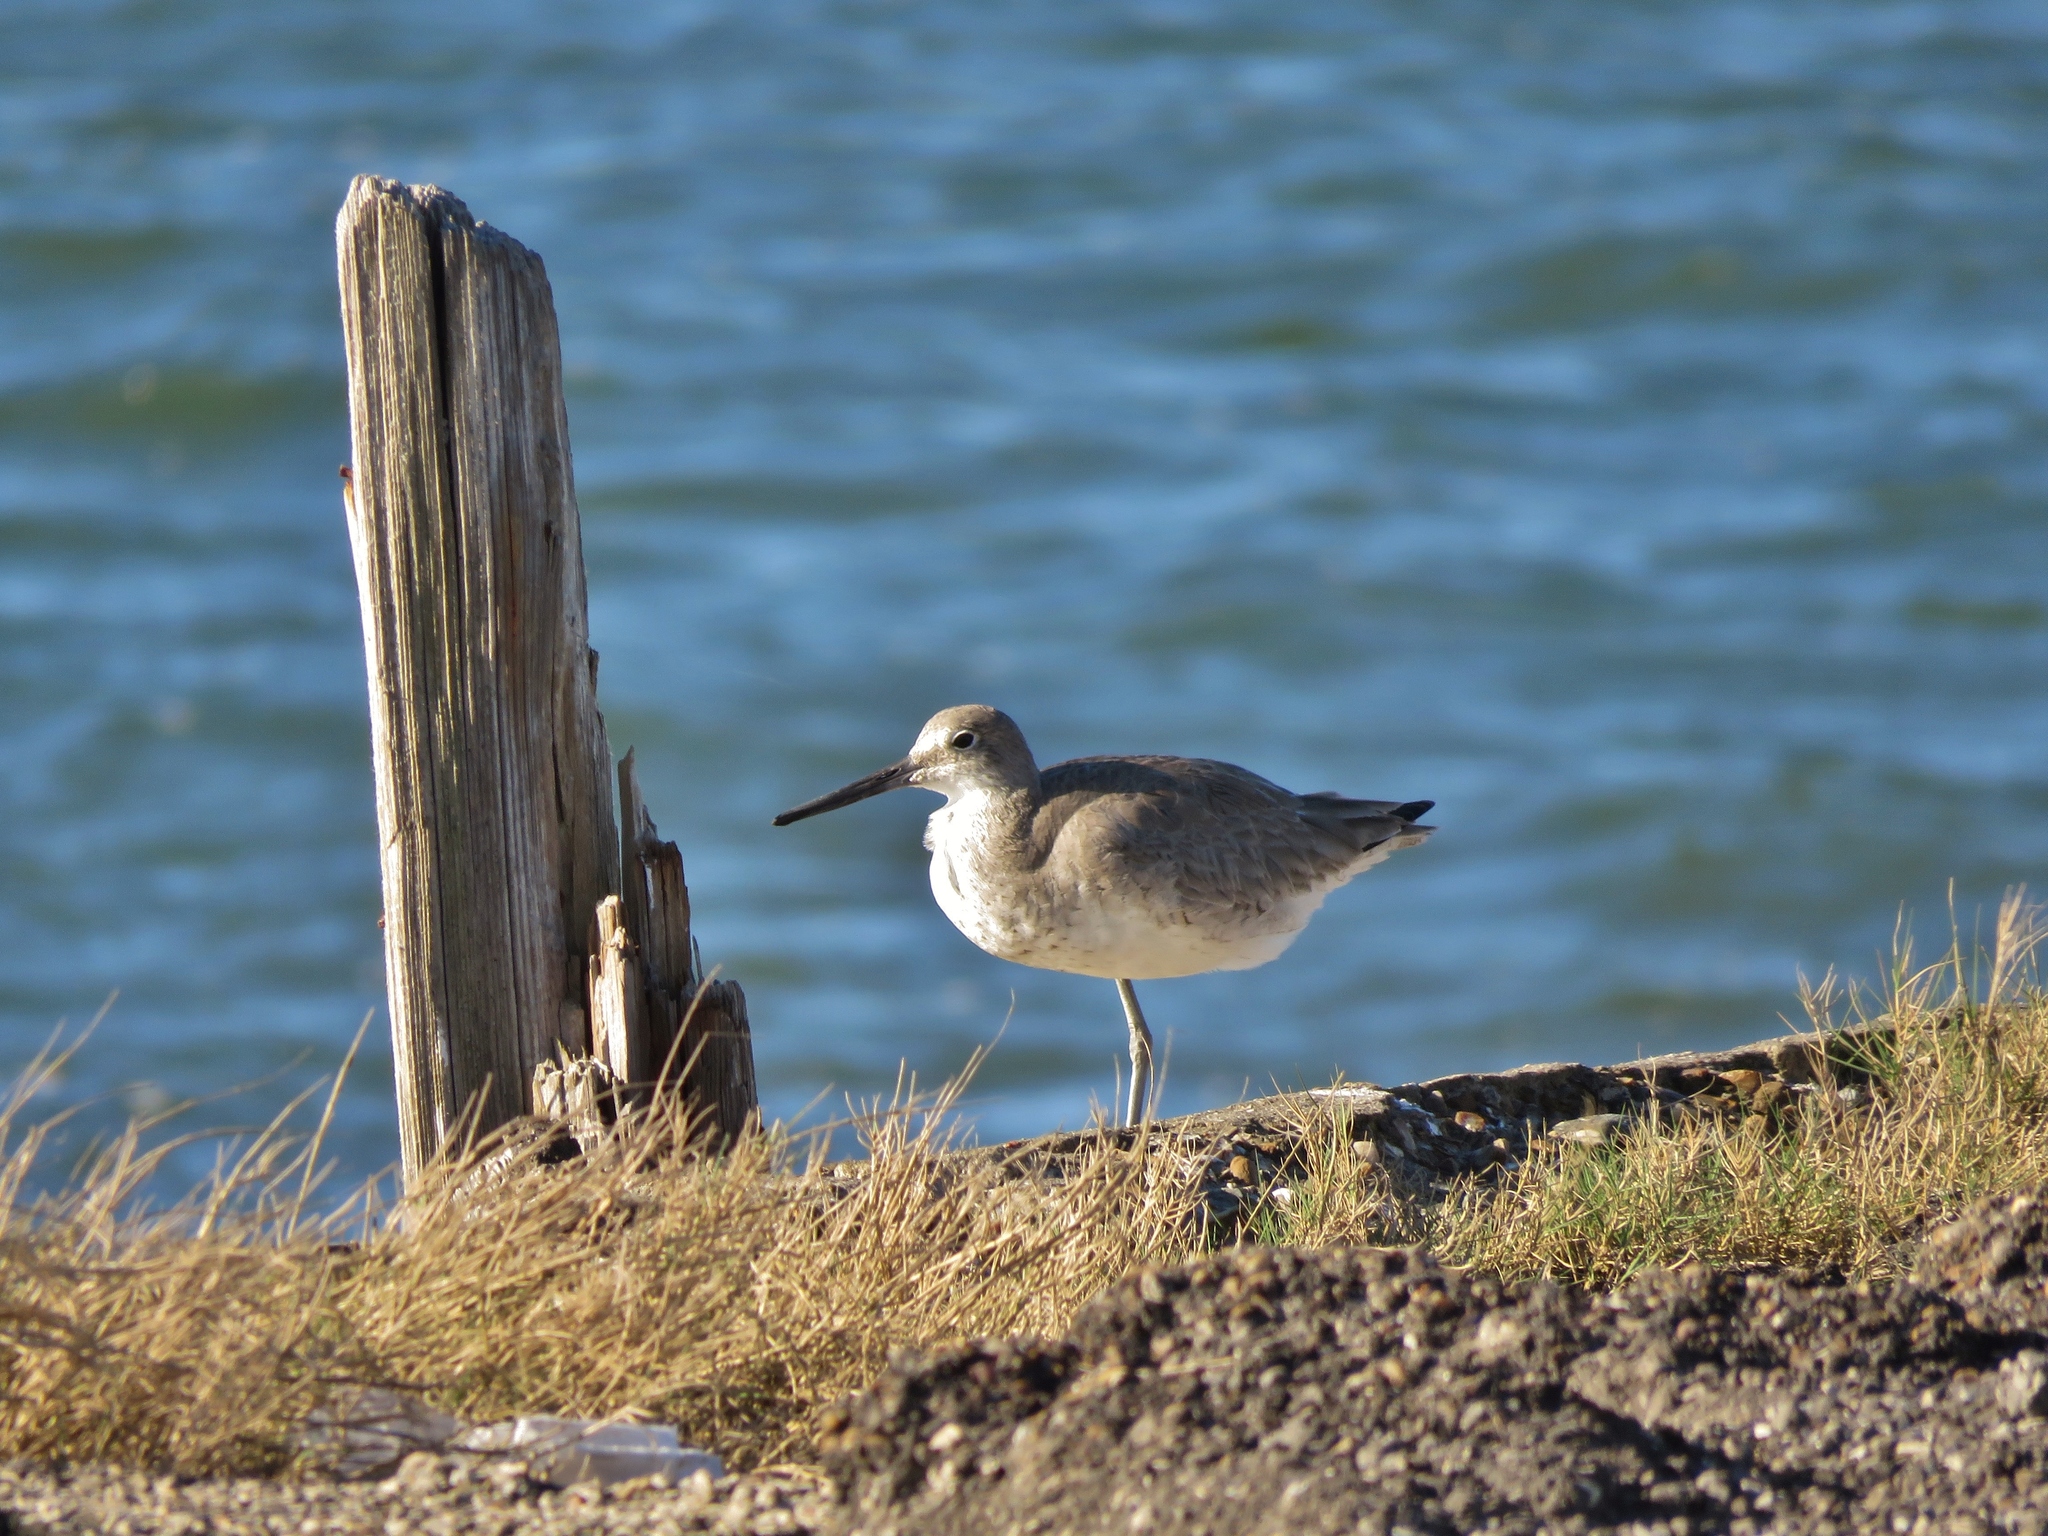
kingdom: Animalia
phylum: Chordata
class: Aves
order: Charadriiformes
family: Scolopacidae
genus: Tringa
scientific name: Tringa semipalmata
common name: Willet
